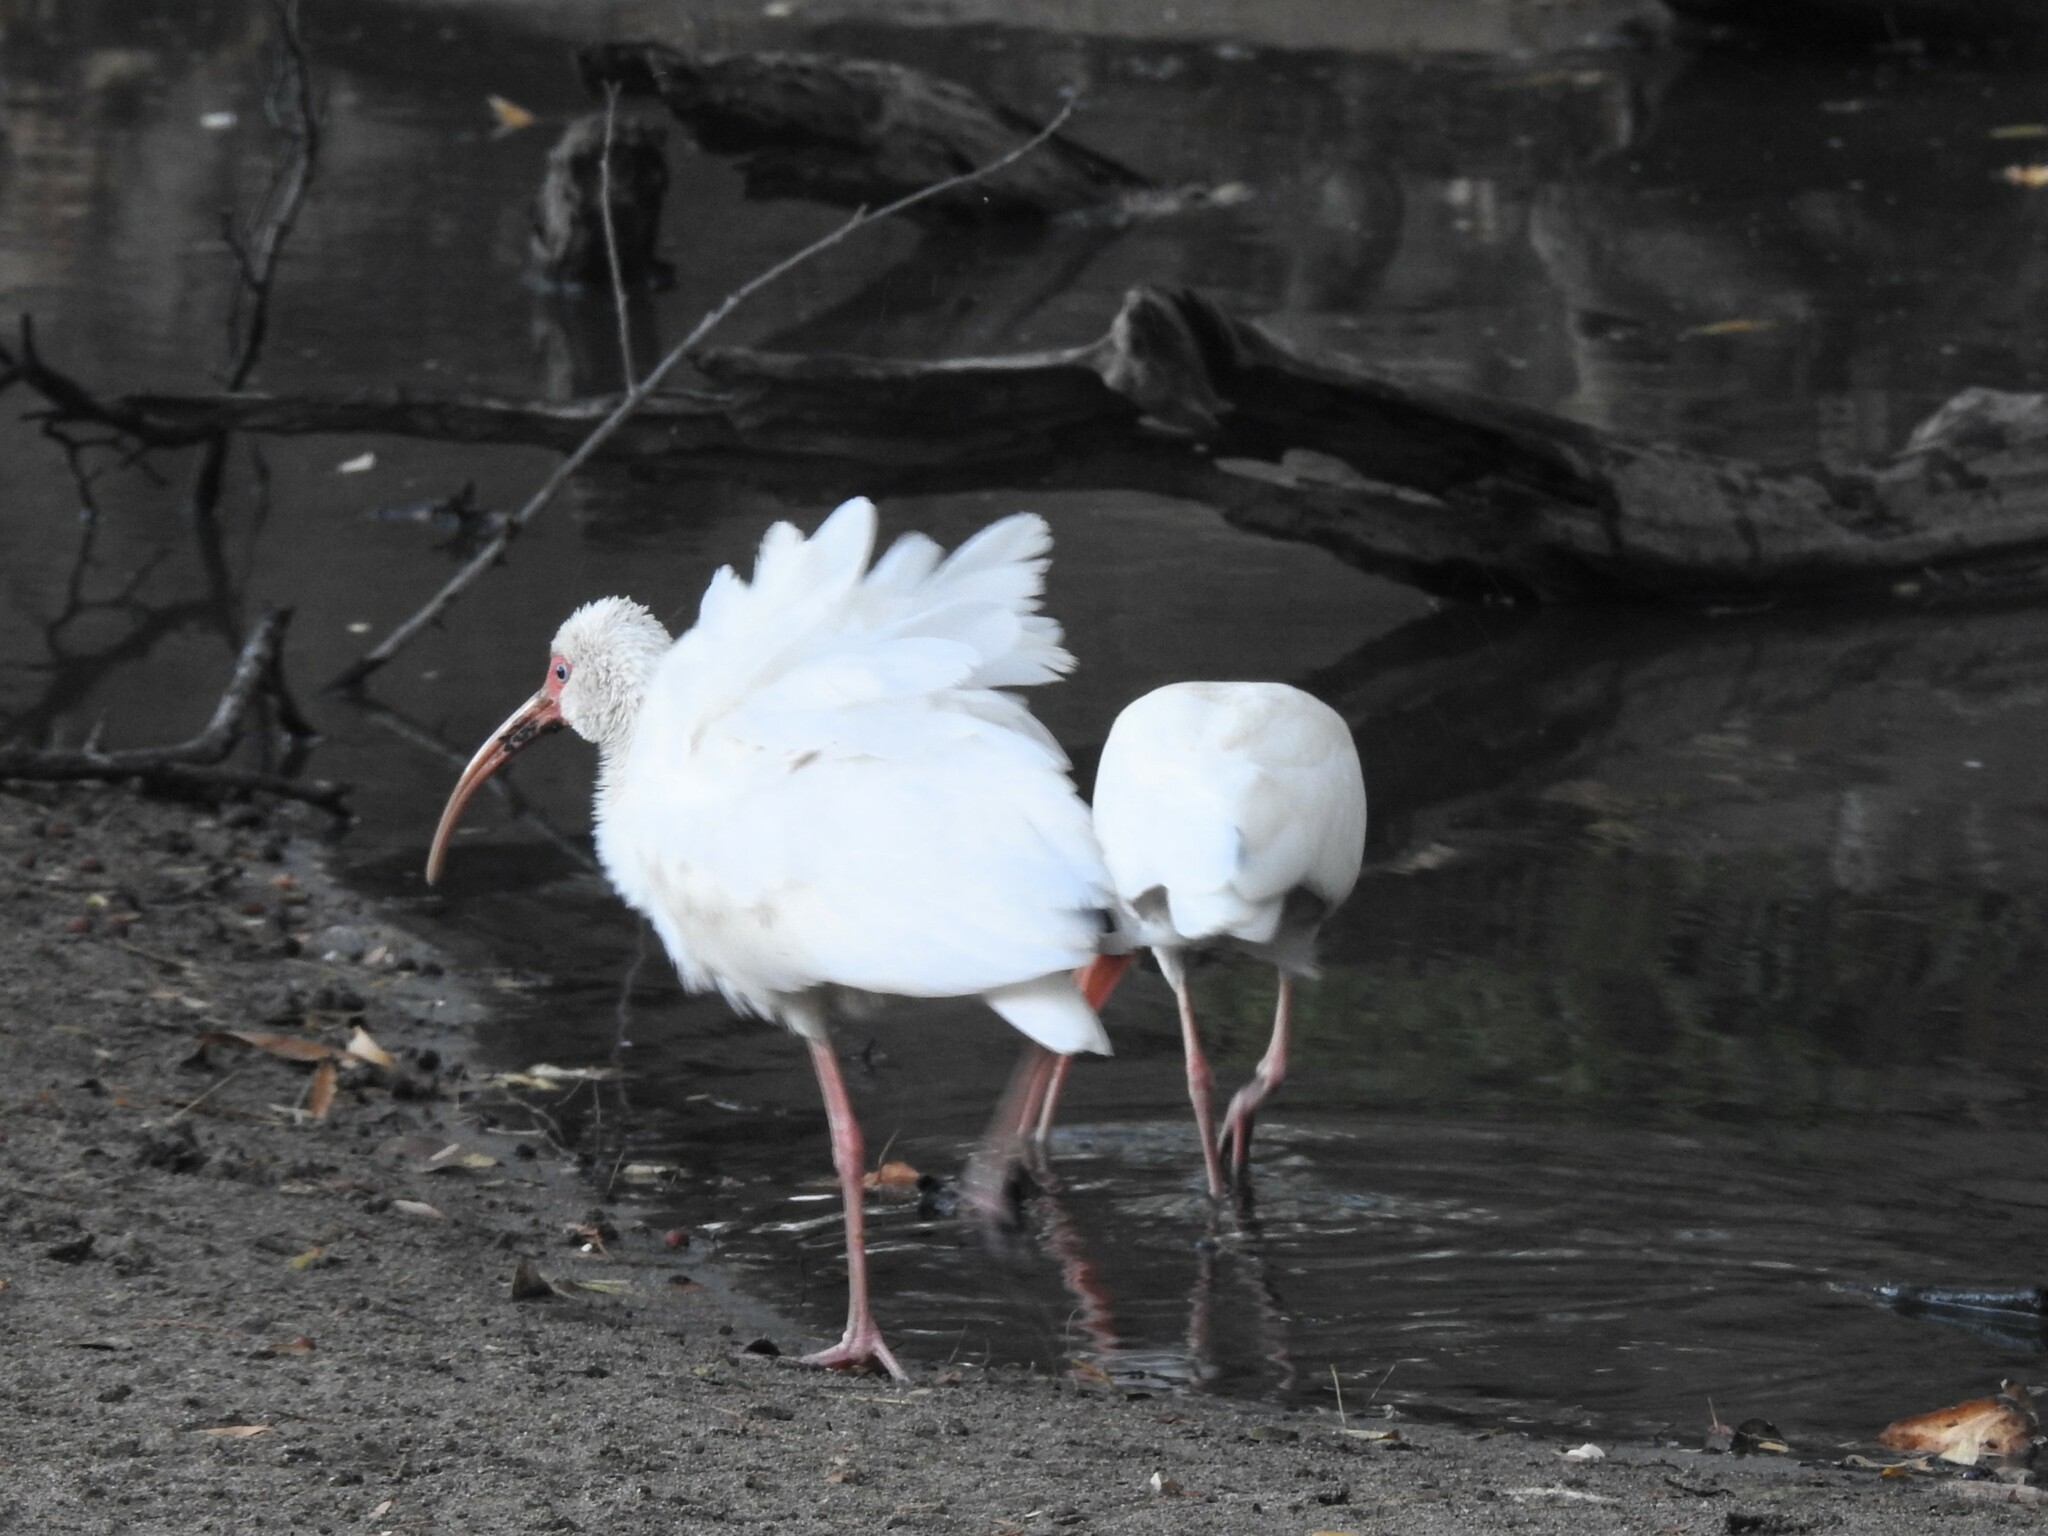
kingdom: Animalia
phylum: Chordata
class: Aves
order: Pelecaniformes
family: Threskiornithidae
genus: Eudocimus
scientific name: Eudocimus albus
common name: White ibis
